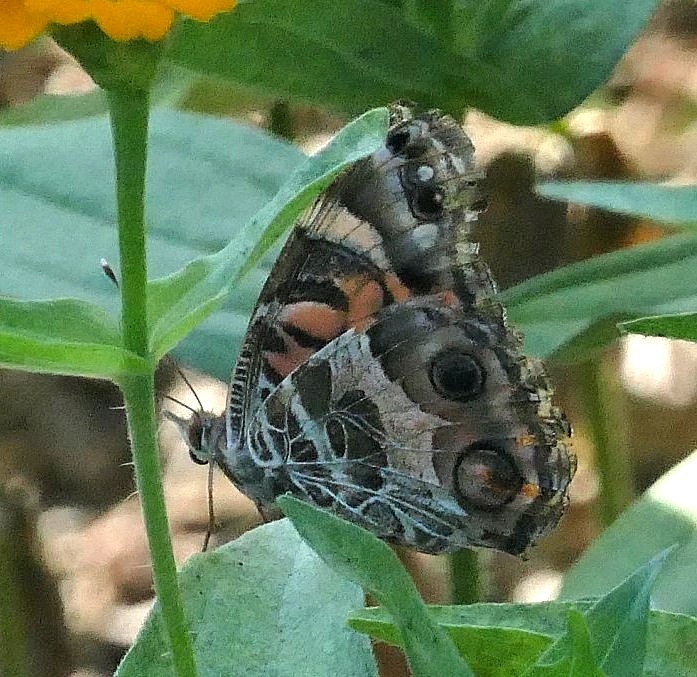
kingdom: Animalia
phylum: Arthropoda
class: Insecta
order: Lepidoptera
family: Nymphalidae
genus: Vanessa
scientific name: Vanessa virginiensis
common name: American lady
